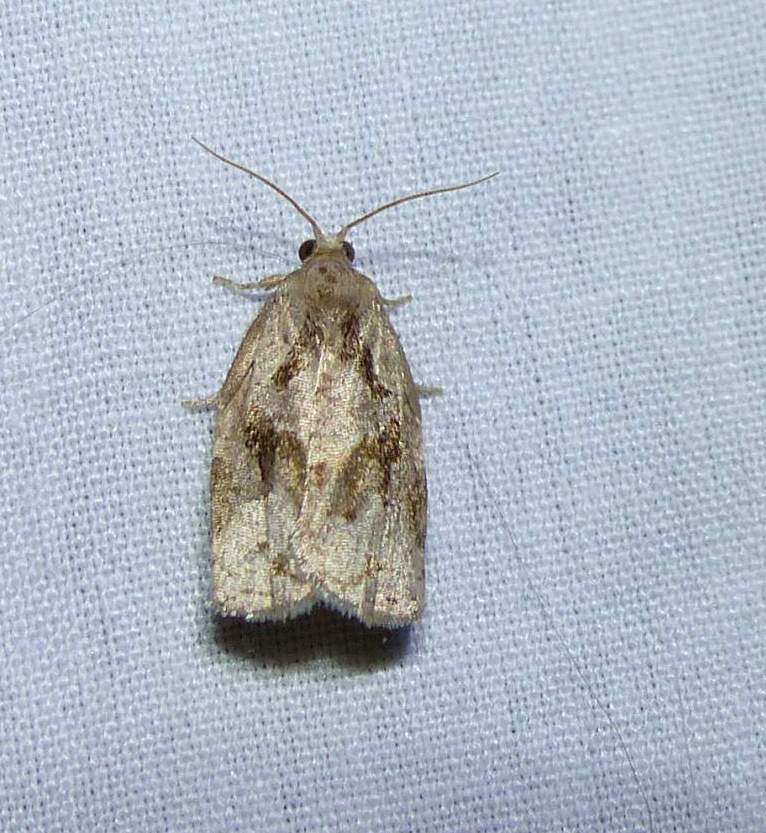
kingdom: Animalia
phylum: Arthropoda
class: Insecta
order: Lepidoptera
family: Tortricidae
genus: Archips
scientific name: Archips grisea
